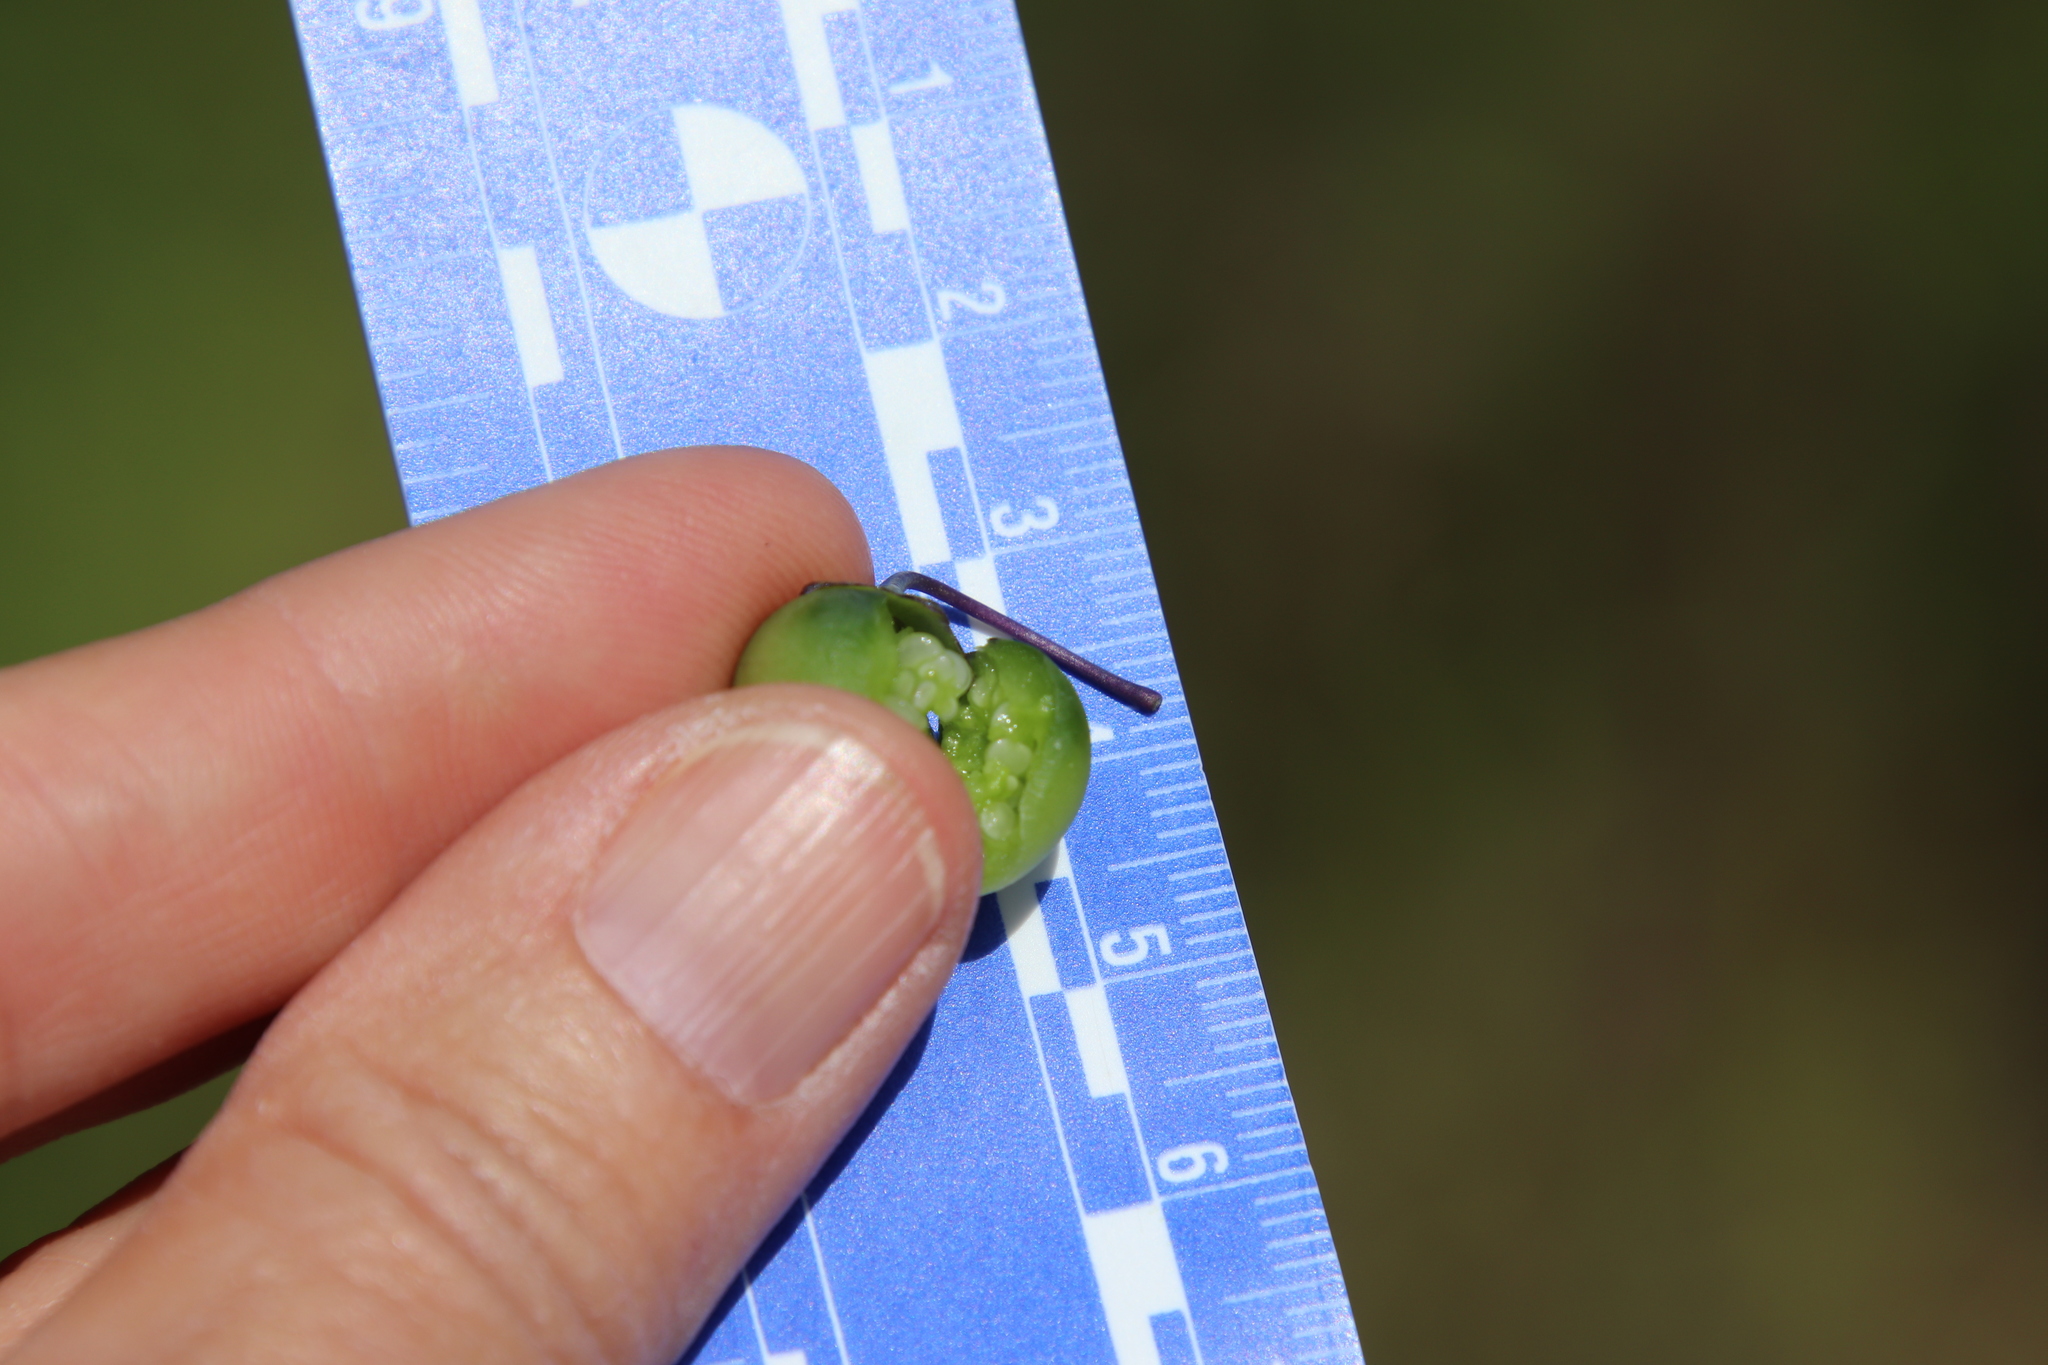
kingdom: Plantae
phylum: Tracheophyta
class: Magnoliopsida
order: Solanales
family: Solanaceae
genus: Solanum
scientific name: Solanum umbelliferum
